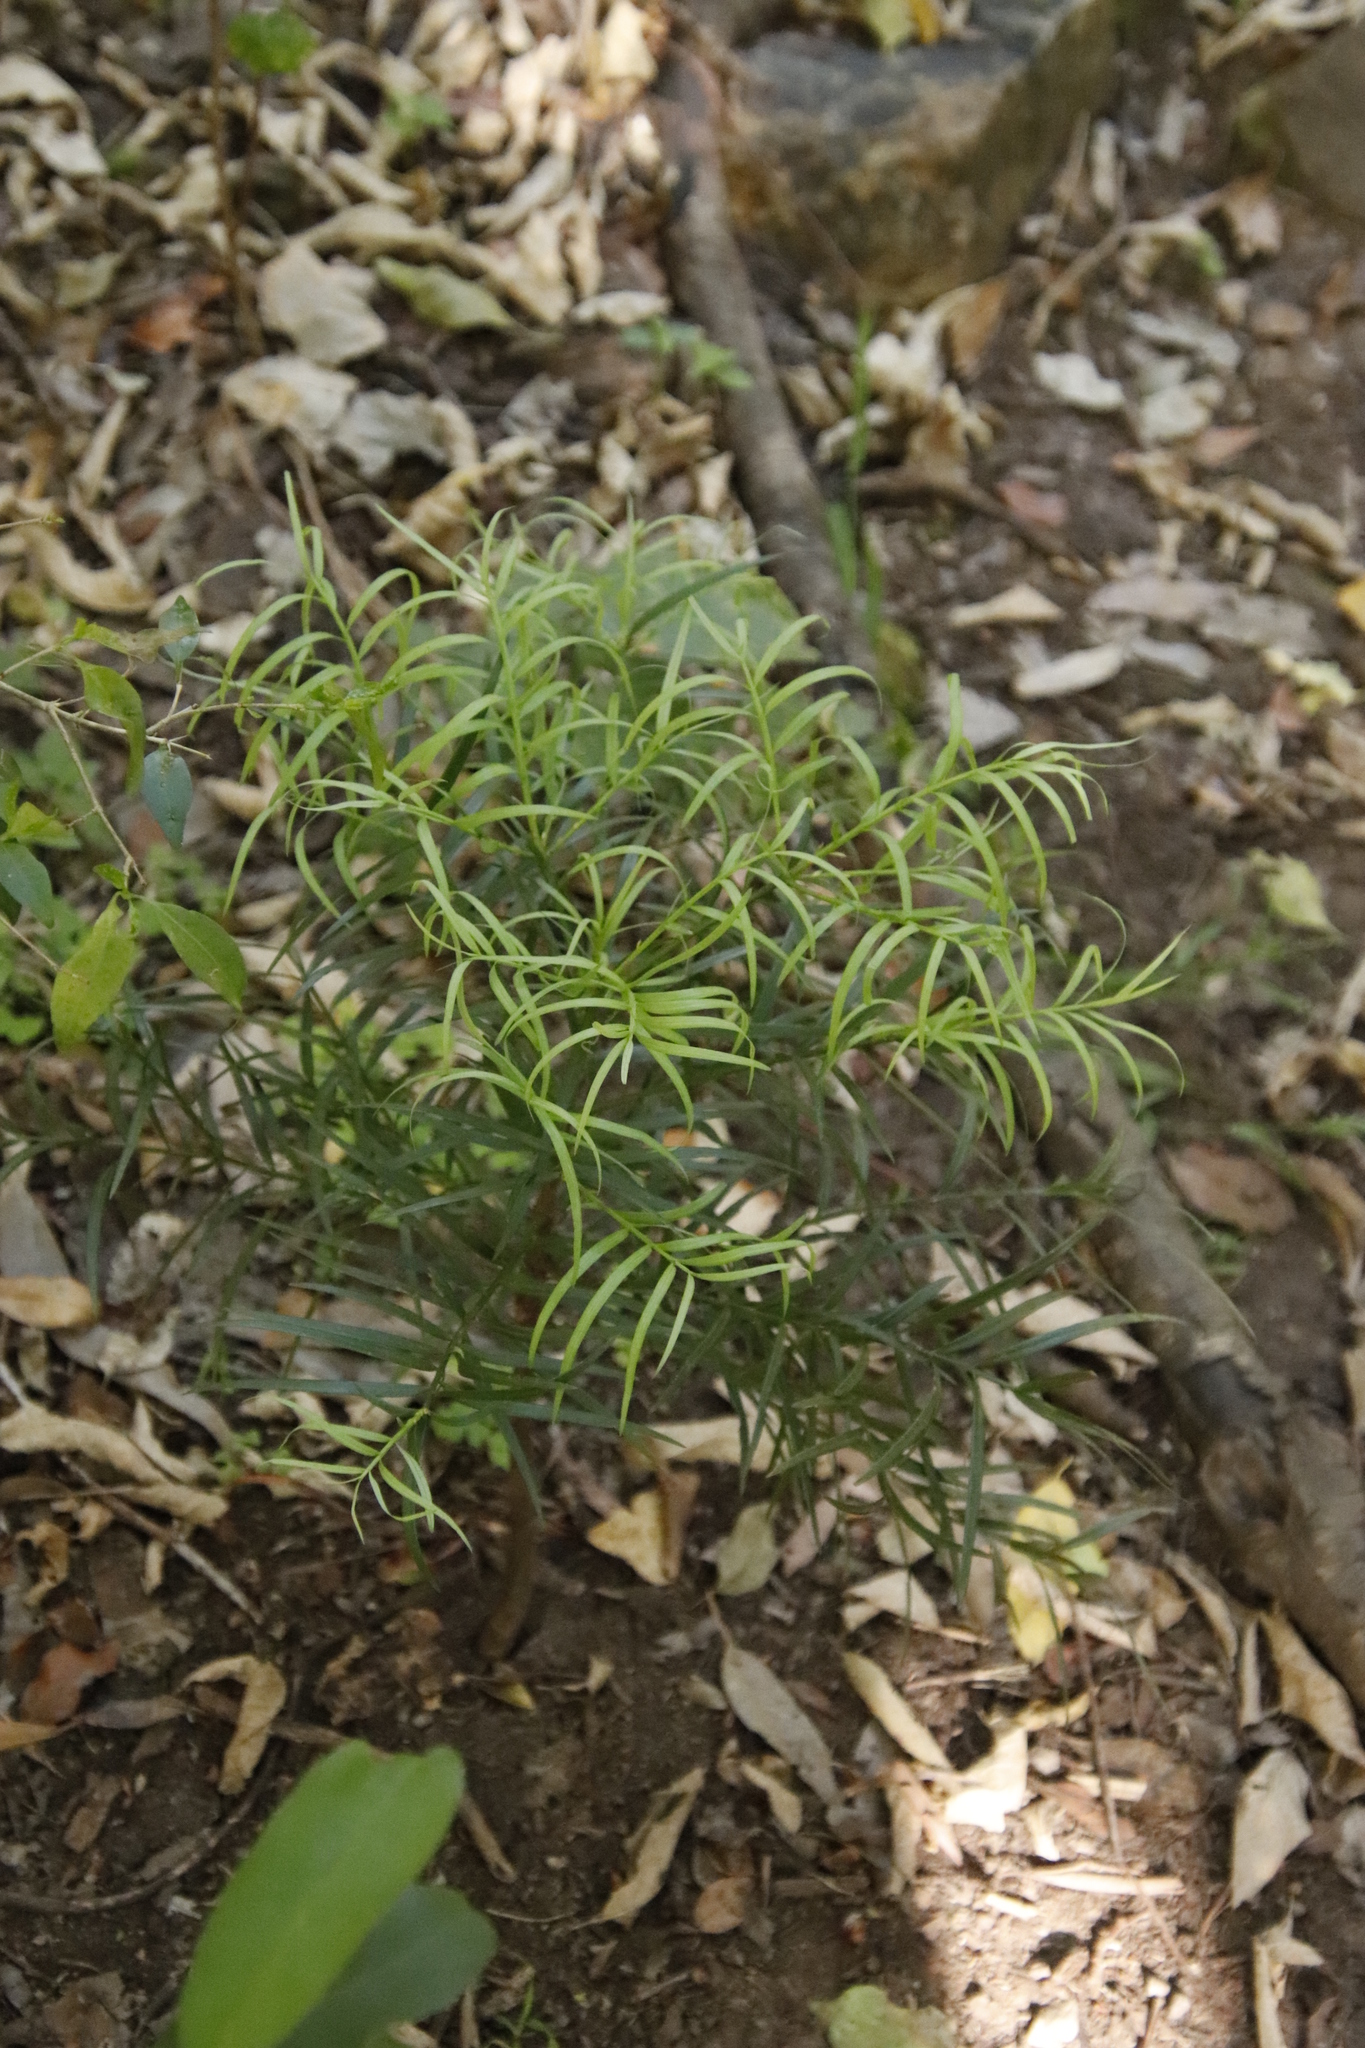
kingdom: Plantae
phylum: Tracheophyta
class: Pinopsida
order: Pinales
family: Podocarpaceae
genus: Afrocarpus
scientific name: Afrocarpus falcatus
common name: Bastard yellowwood
